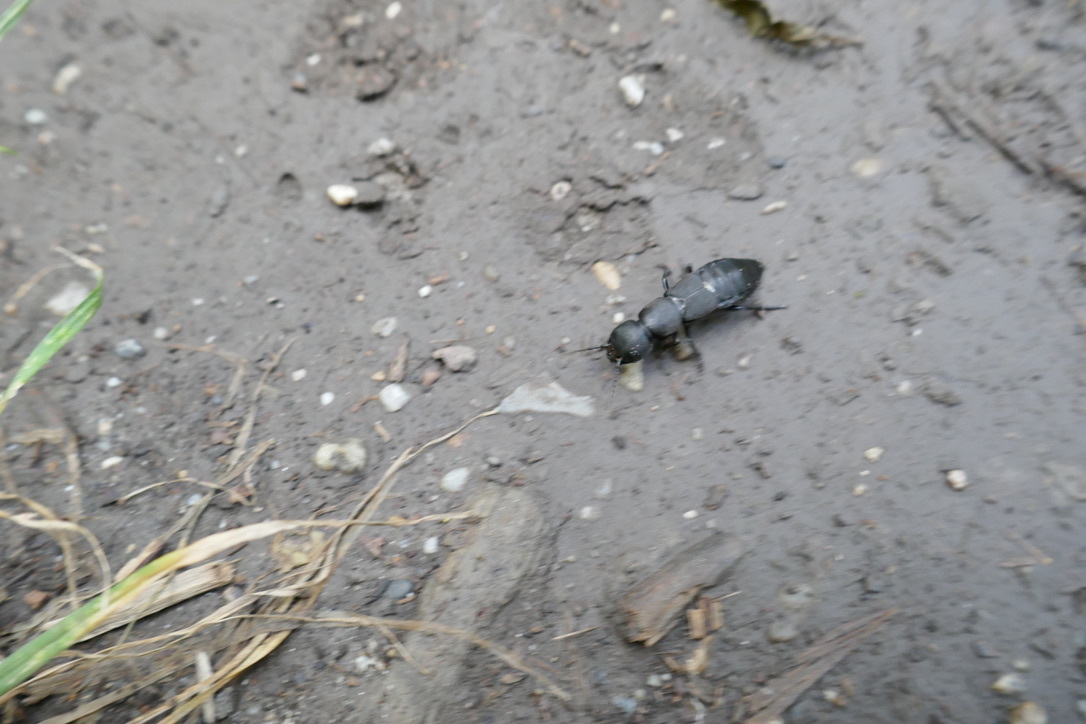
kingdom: Animalia
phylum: Arthropoda
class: Insecta
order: Coleoptera
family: Staphylinidae
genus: Ocypus
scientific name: Ocypus olens
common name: Devil's coach-horse
